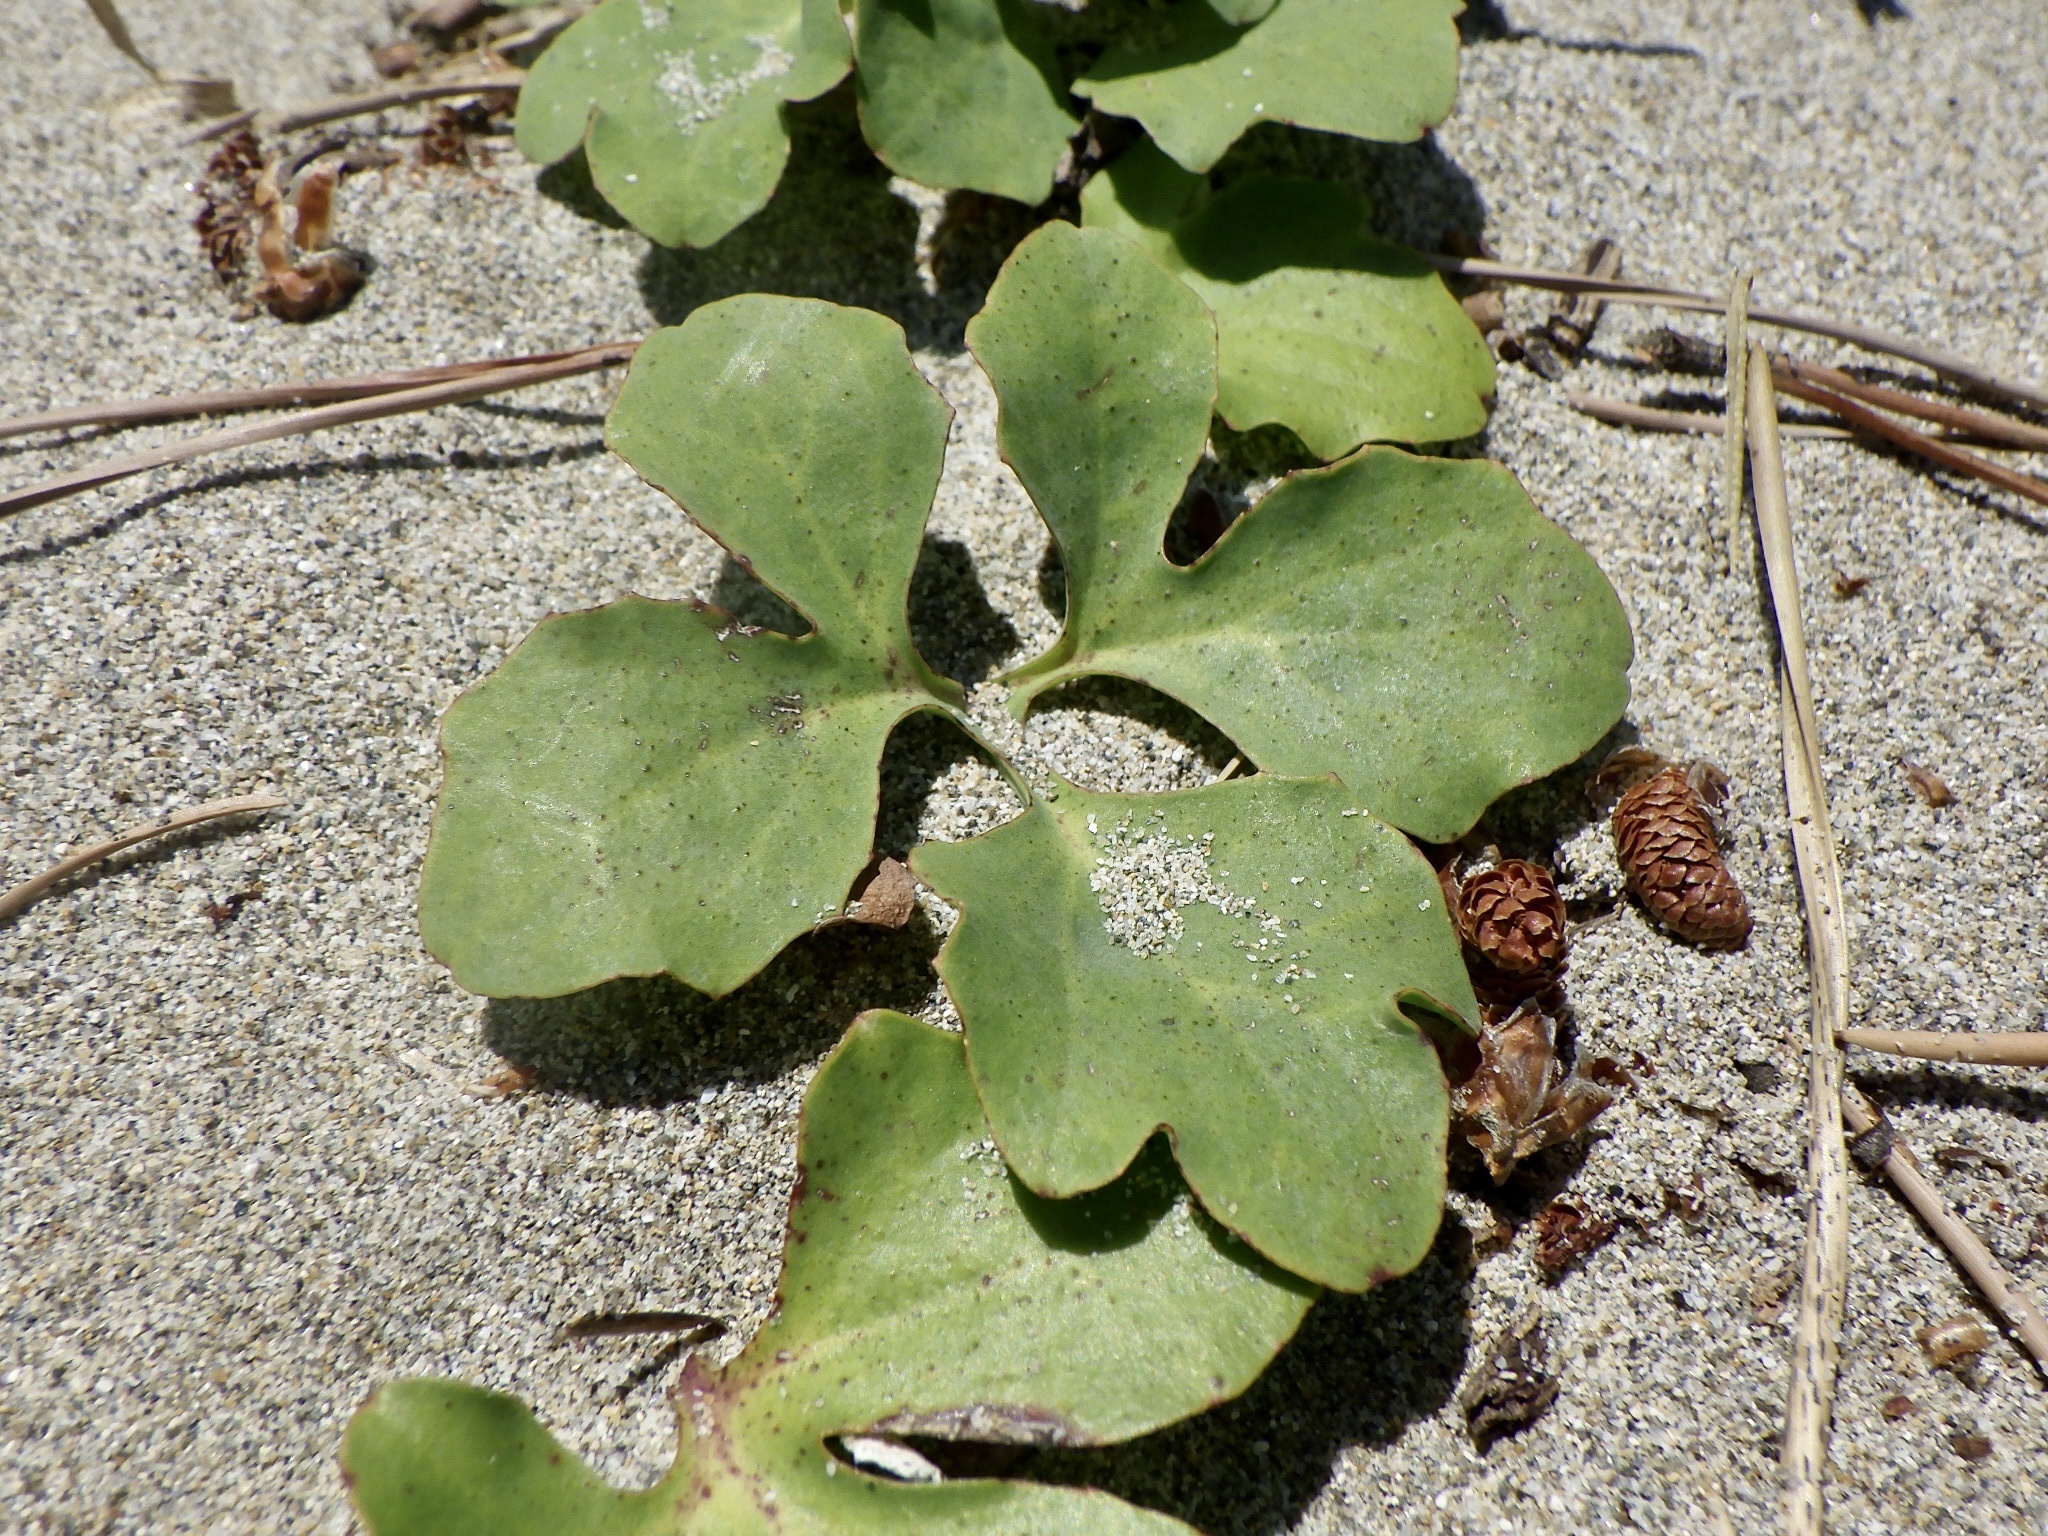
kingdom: Plantae
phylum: Tracheophyta
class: Magnoliopsida
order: Asterales
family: Asteraceae
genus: Ixeris
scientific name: Ixeris repens
